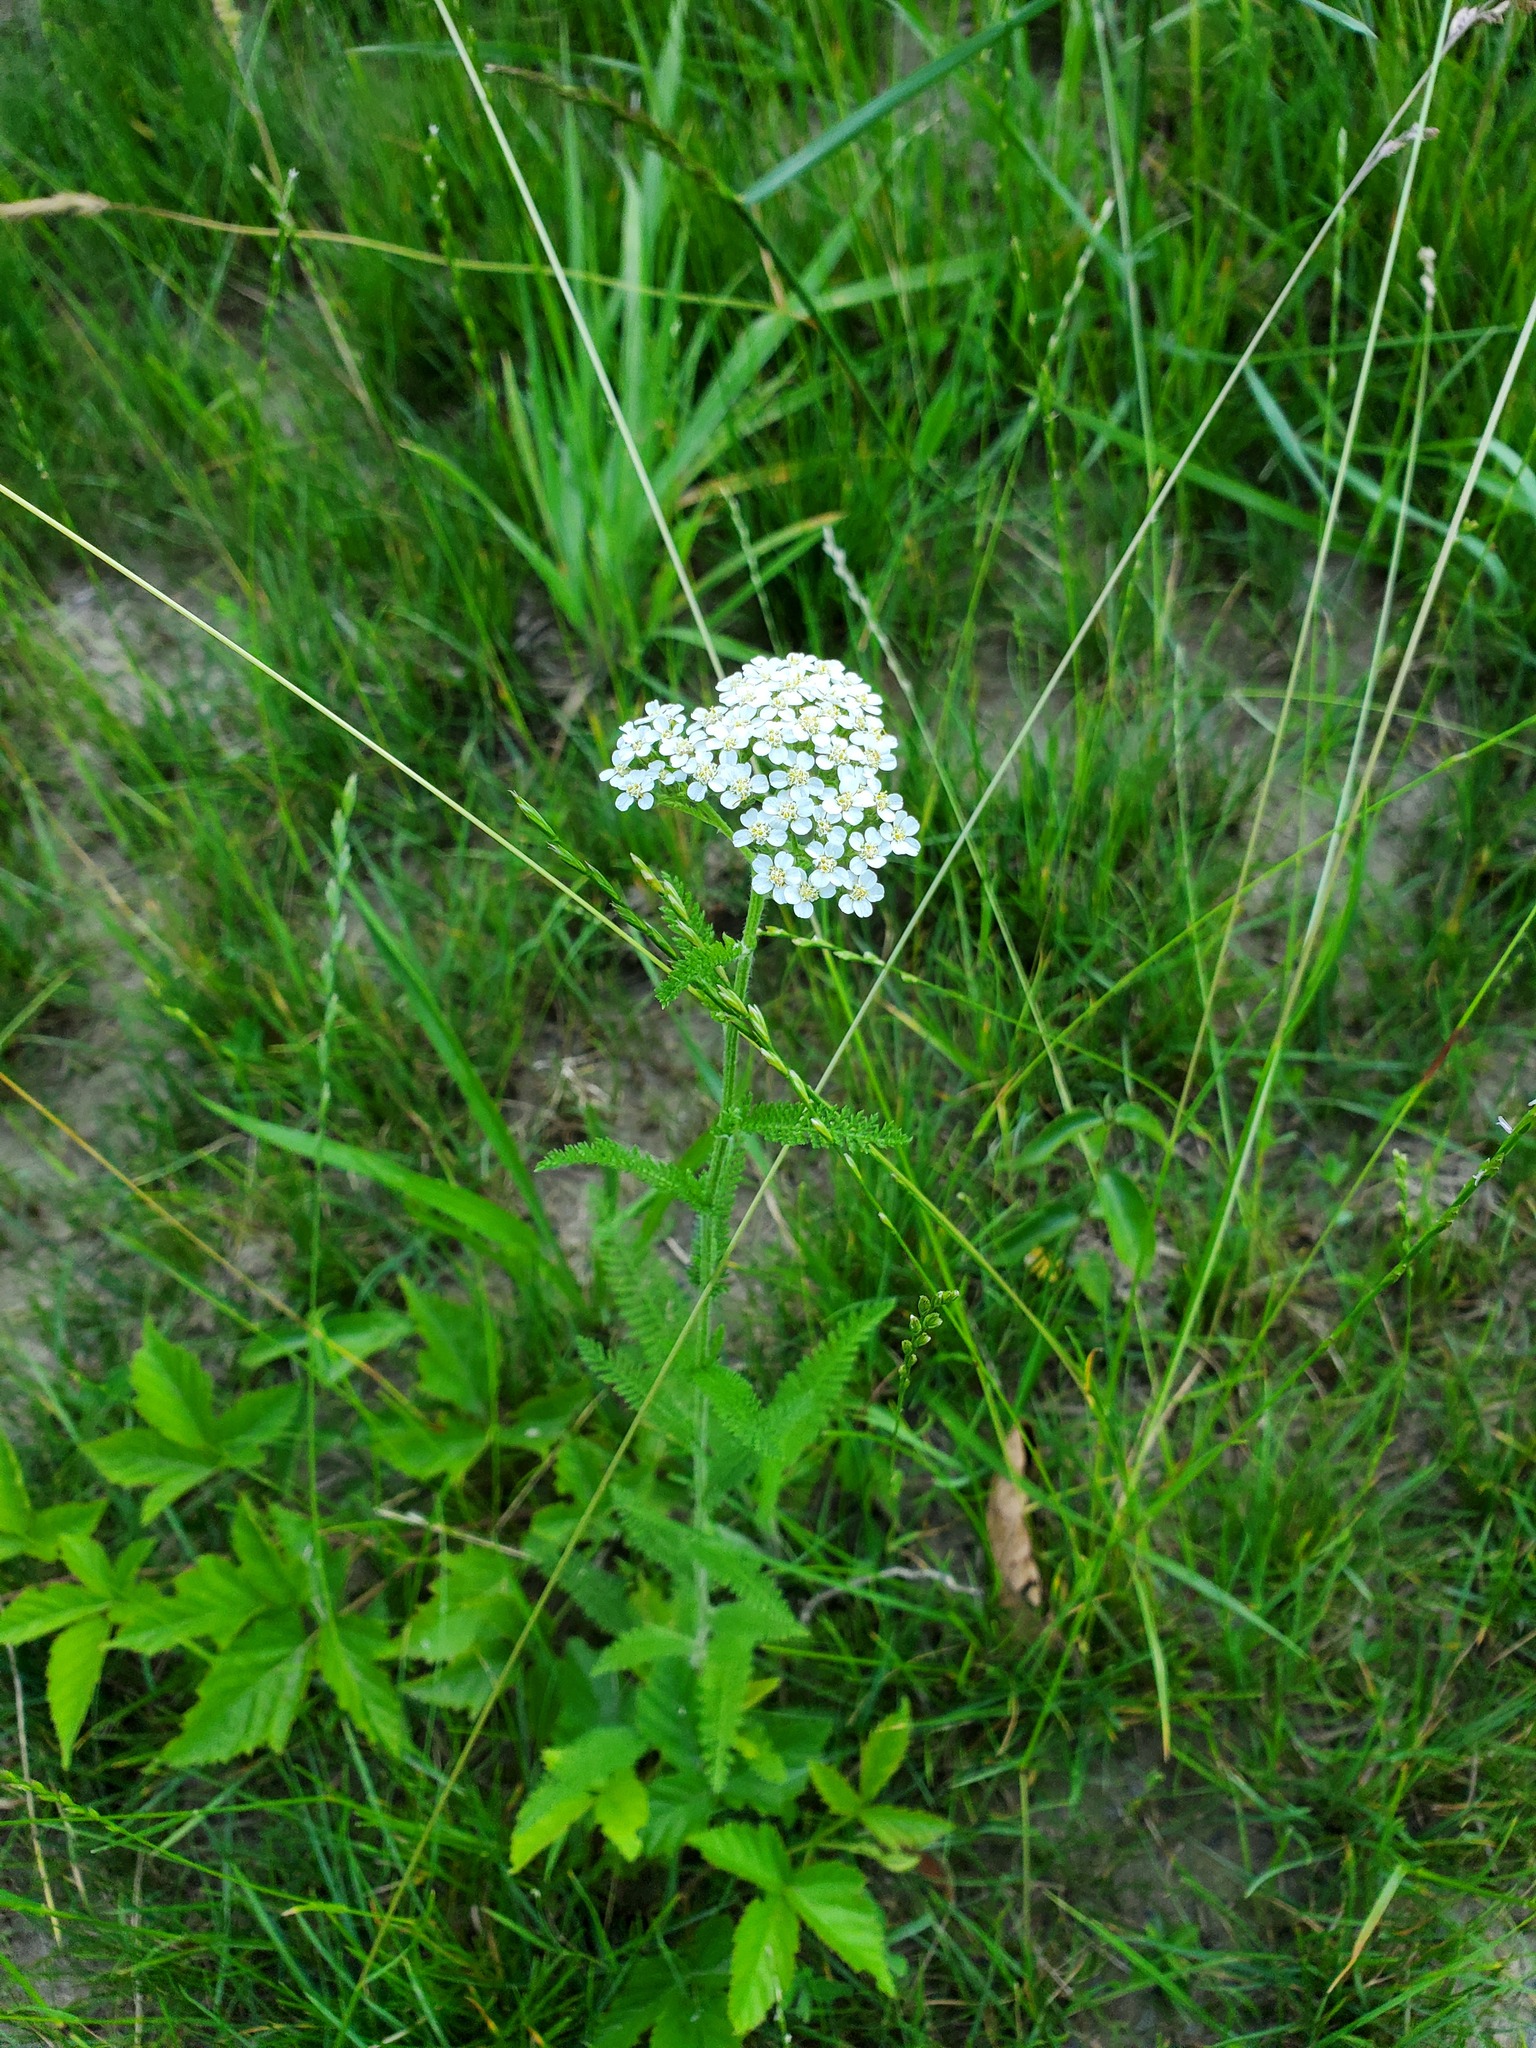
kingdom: Plantae
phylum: Tracheophyta
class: Magnoliopsida
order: Asterales
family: Asteraceae
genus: Achillea
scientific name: Achillea millefolium
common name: Yarrow
